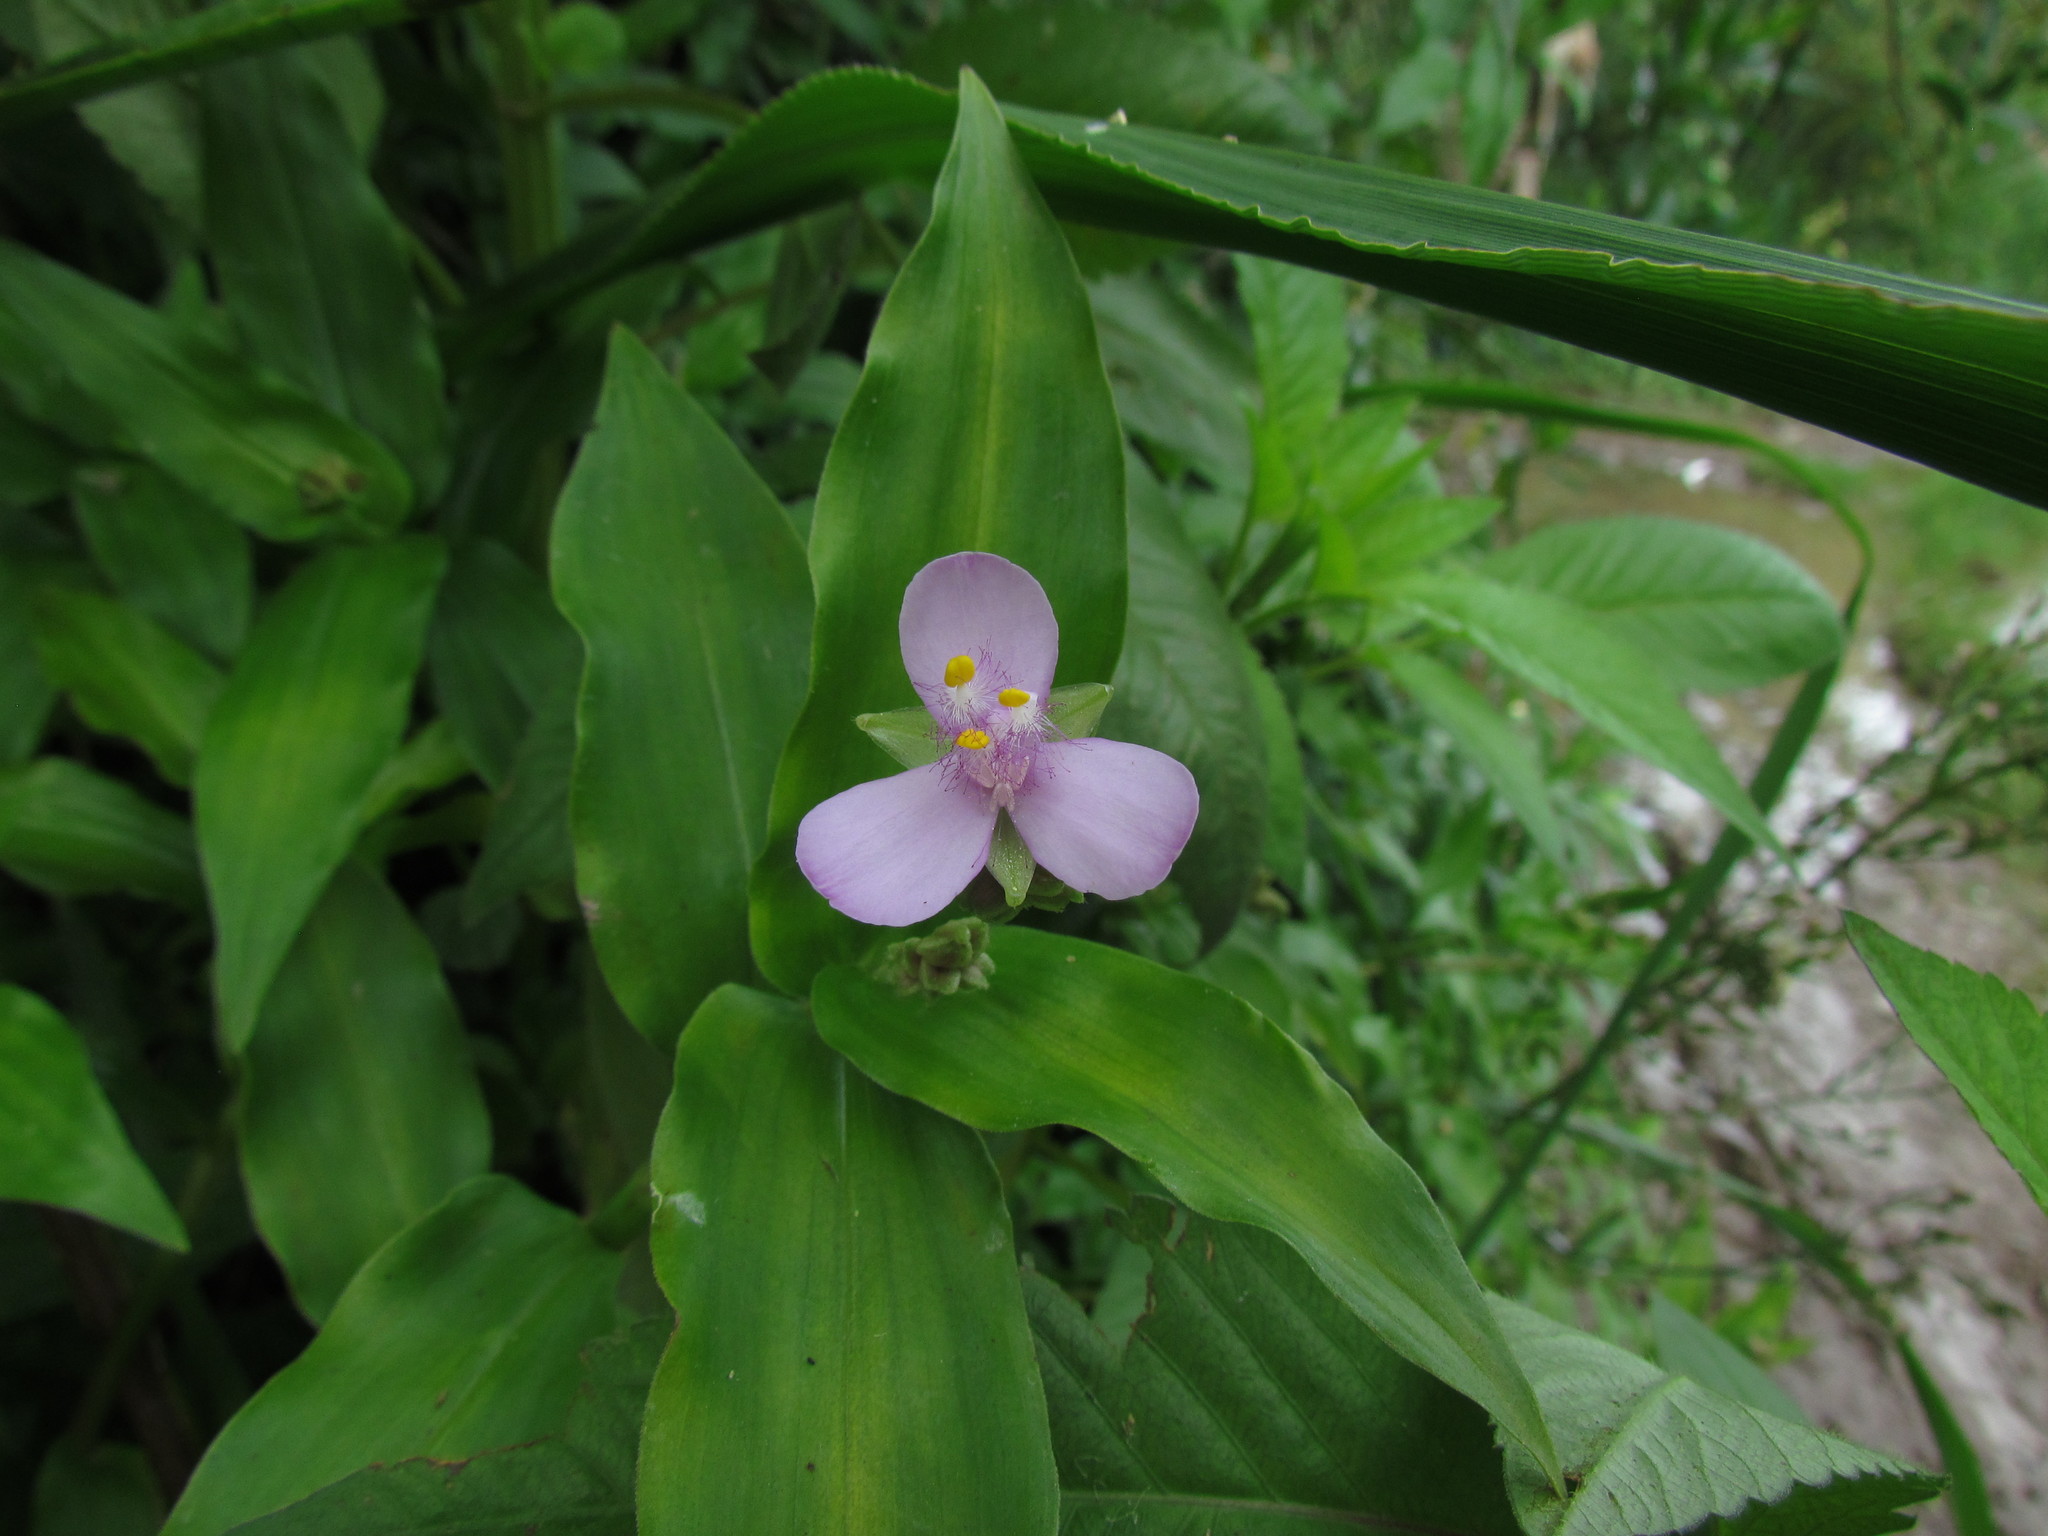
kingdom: Plantae
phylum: Tracheophyta
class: Liliopsida
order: Commelinales
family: Commelinaceae
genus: Callisia
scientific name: Callisia diuretica
